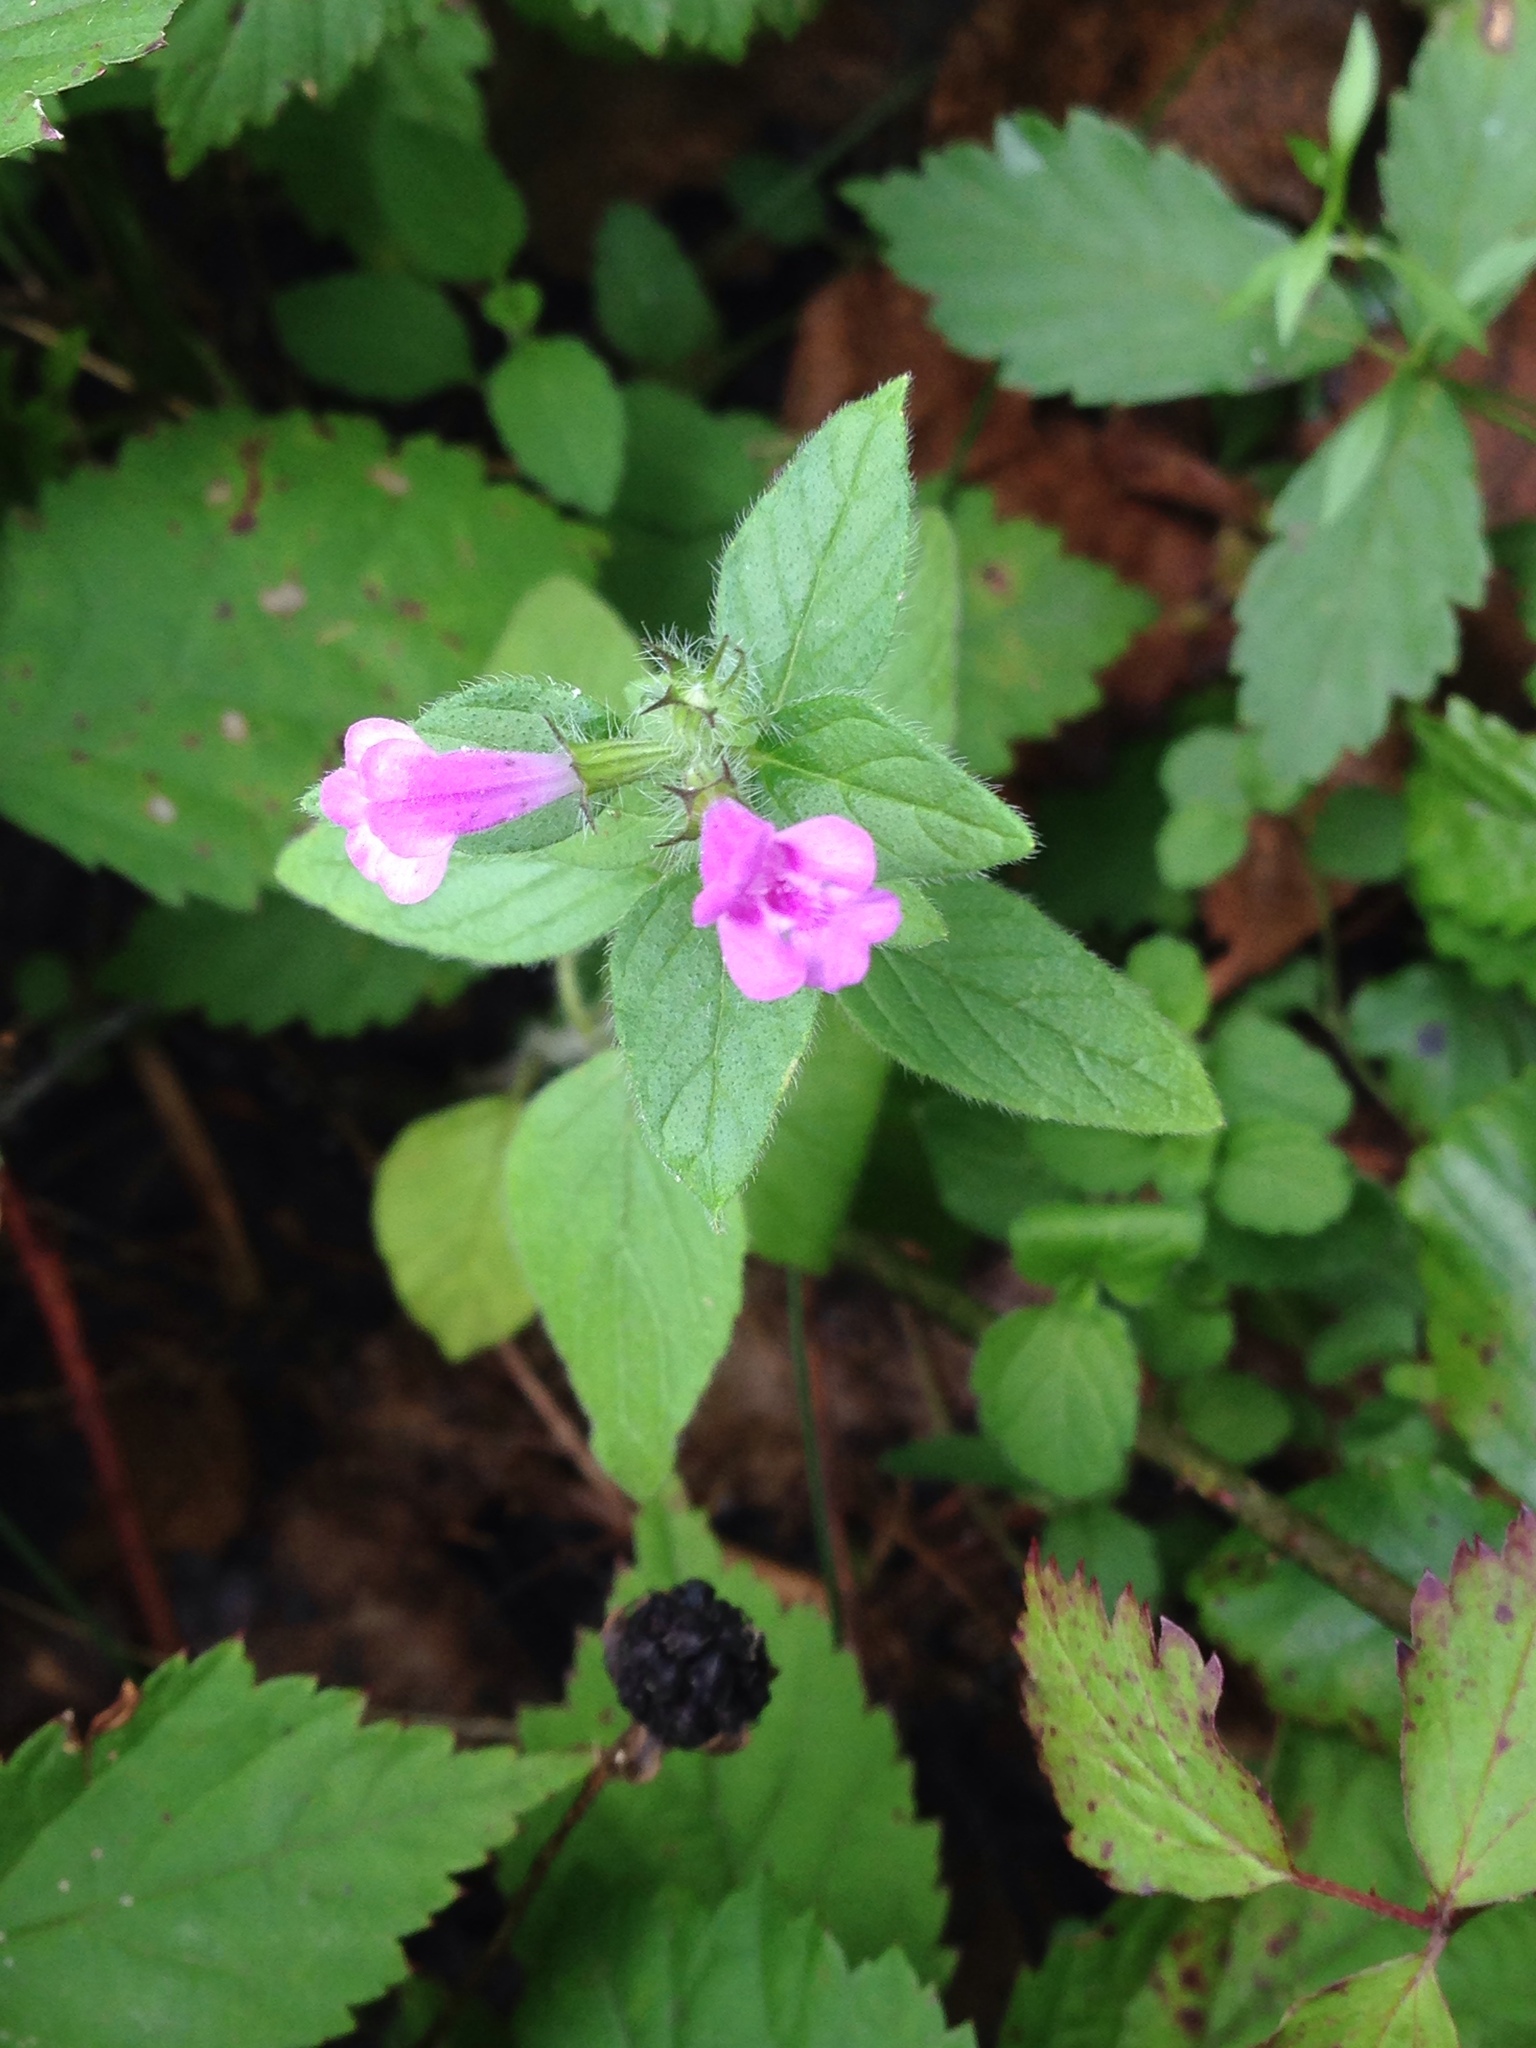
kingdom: Plantae
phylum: Tracheophyta
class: Magnoliopsida
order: Lamiales
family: Lamiaceae
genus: Clinopodium
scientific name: Clinopodium vulgare
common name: Wild basil
